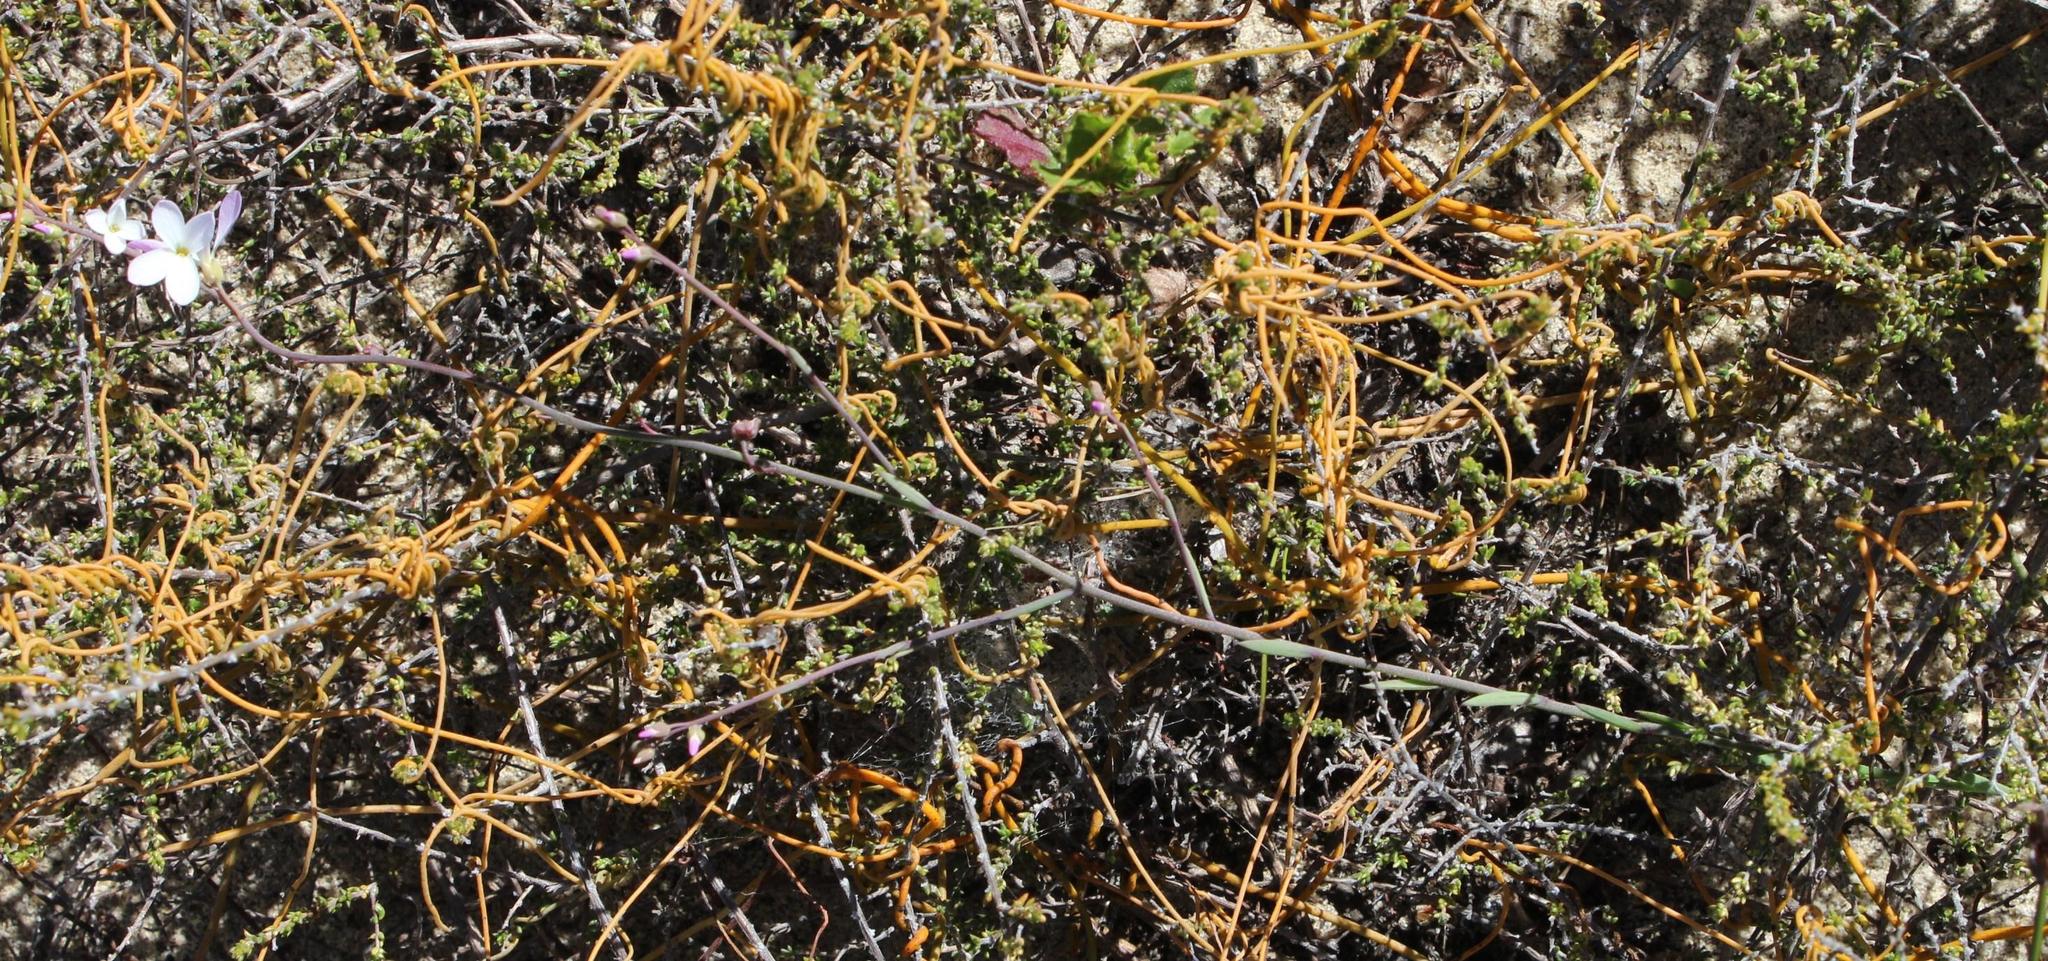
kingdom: Plantae
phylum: Tracheophyta
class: Magnoliopsida
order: Brassicales
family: Brassicaceae
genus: Heliophila
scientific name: Heliophila juncea
